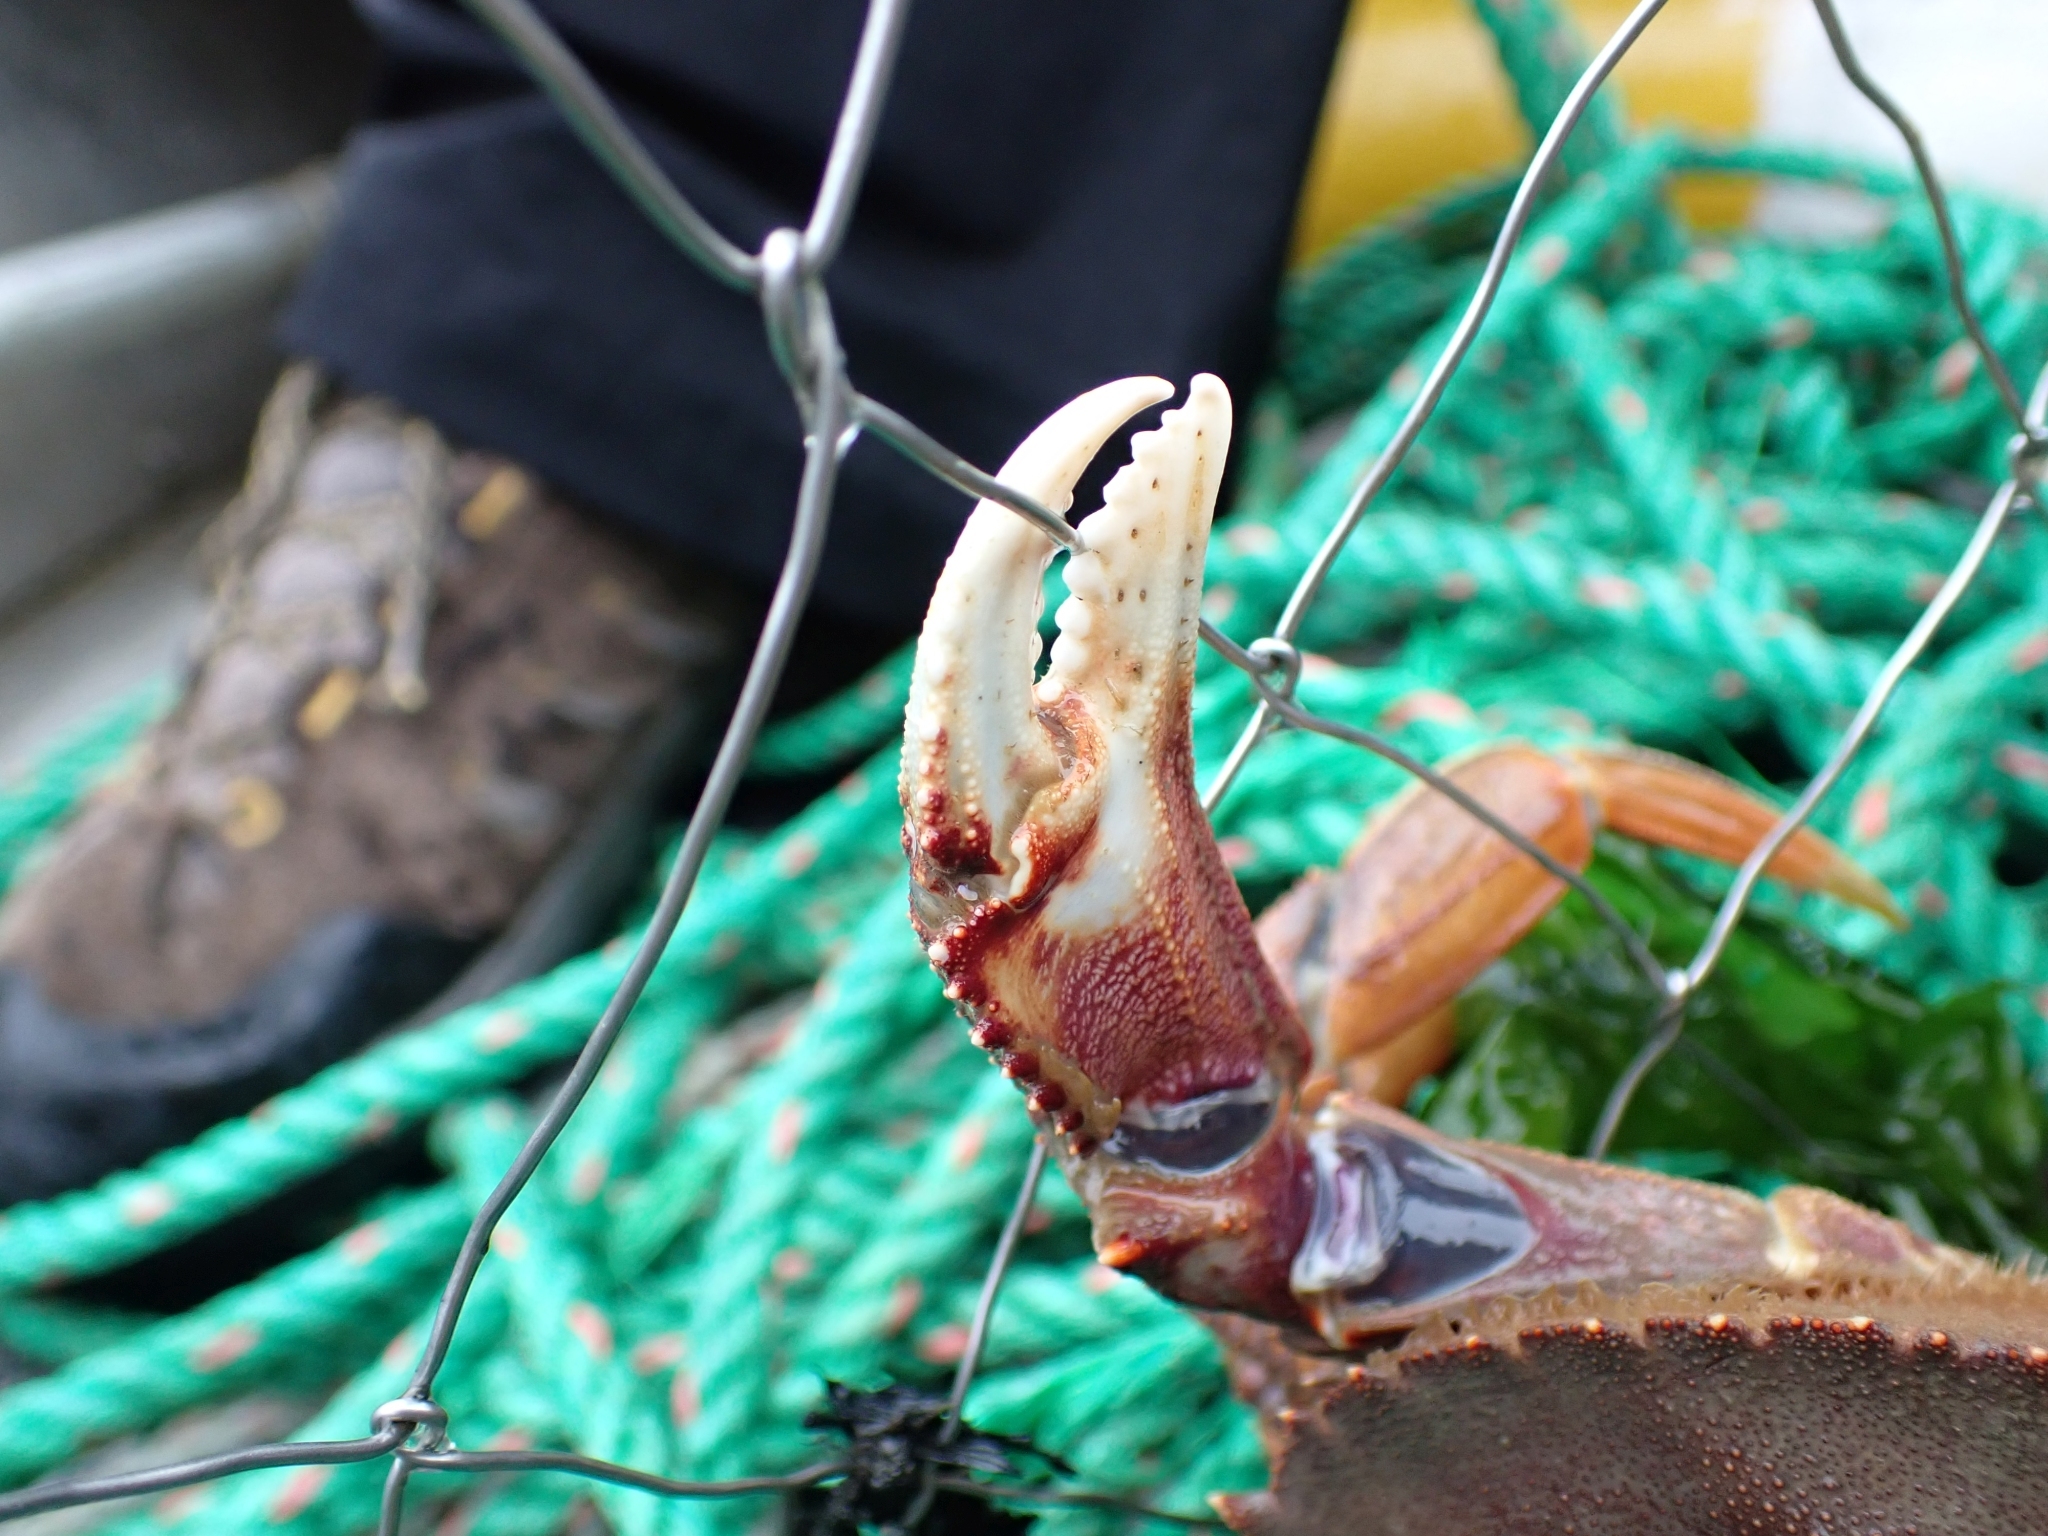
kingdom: Animalia
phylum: Arthropoda
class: Malacostraca
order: Decapoda
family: Cancridae
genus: Metacarcinus
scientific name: Metacarcinus magister
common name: Californian crab
